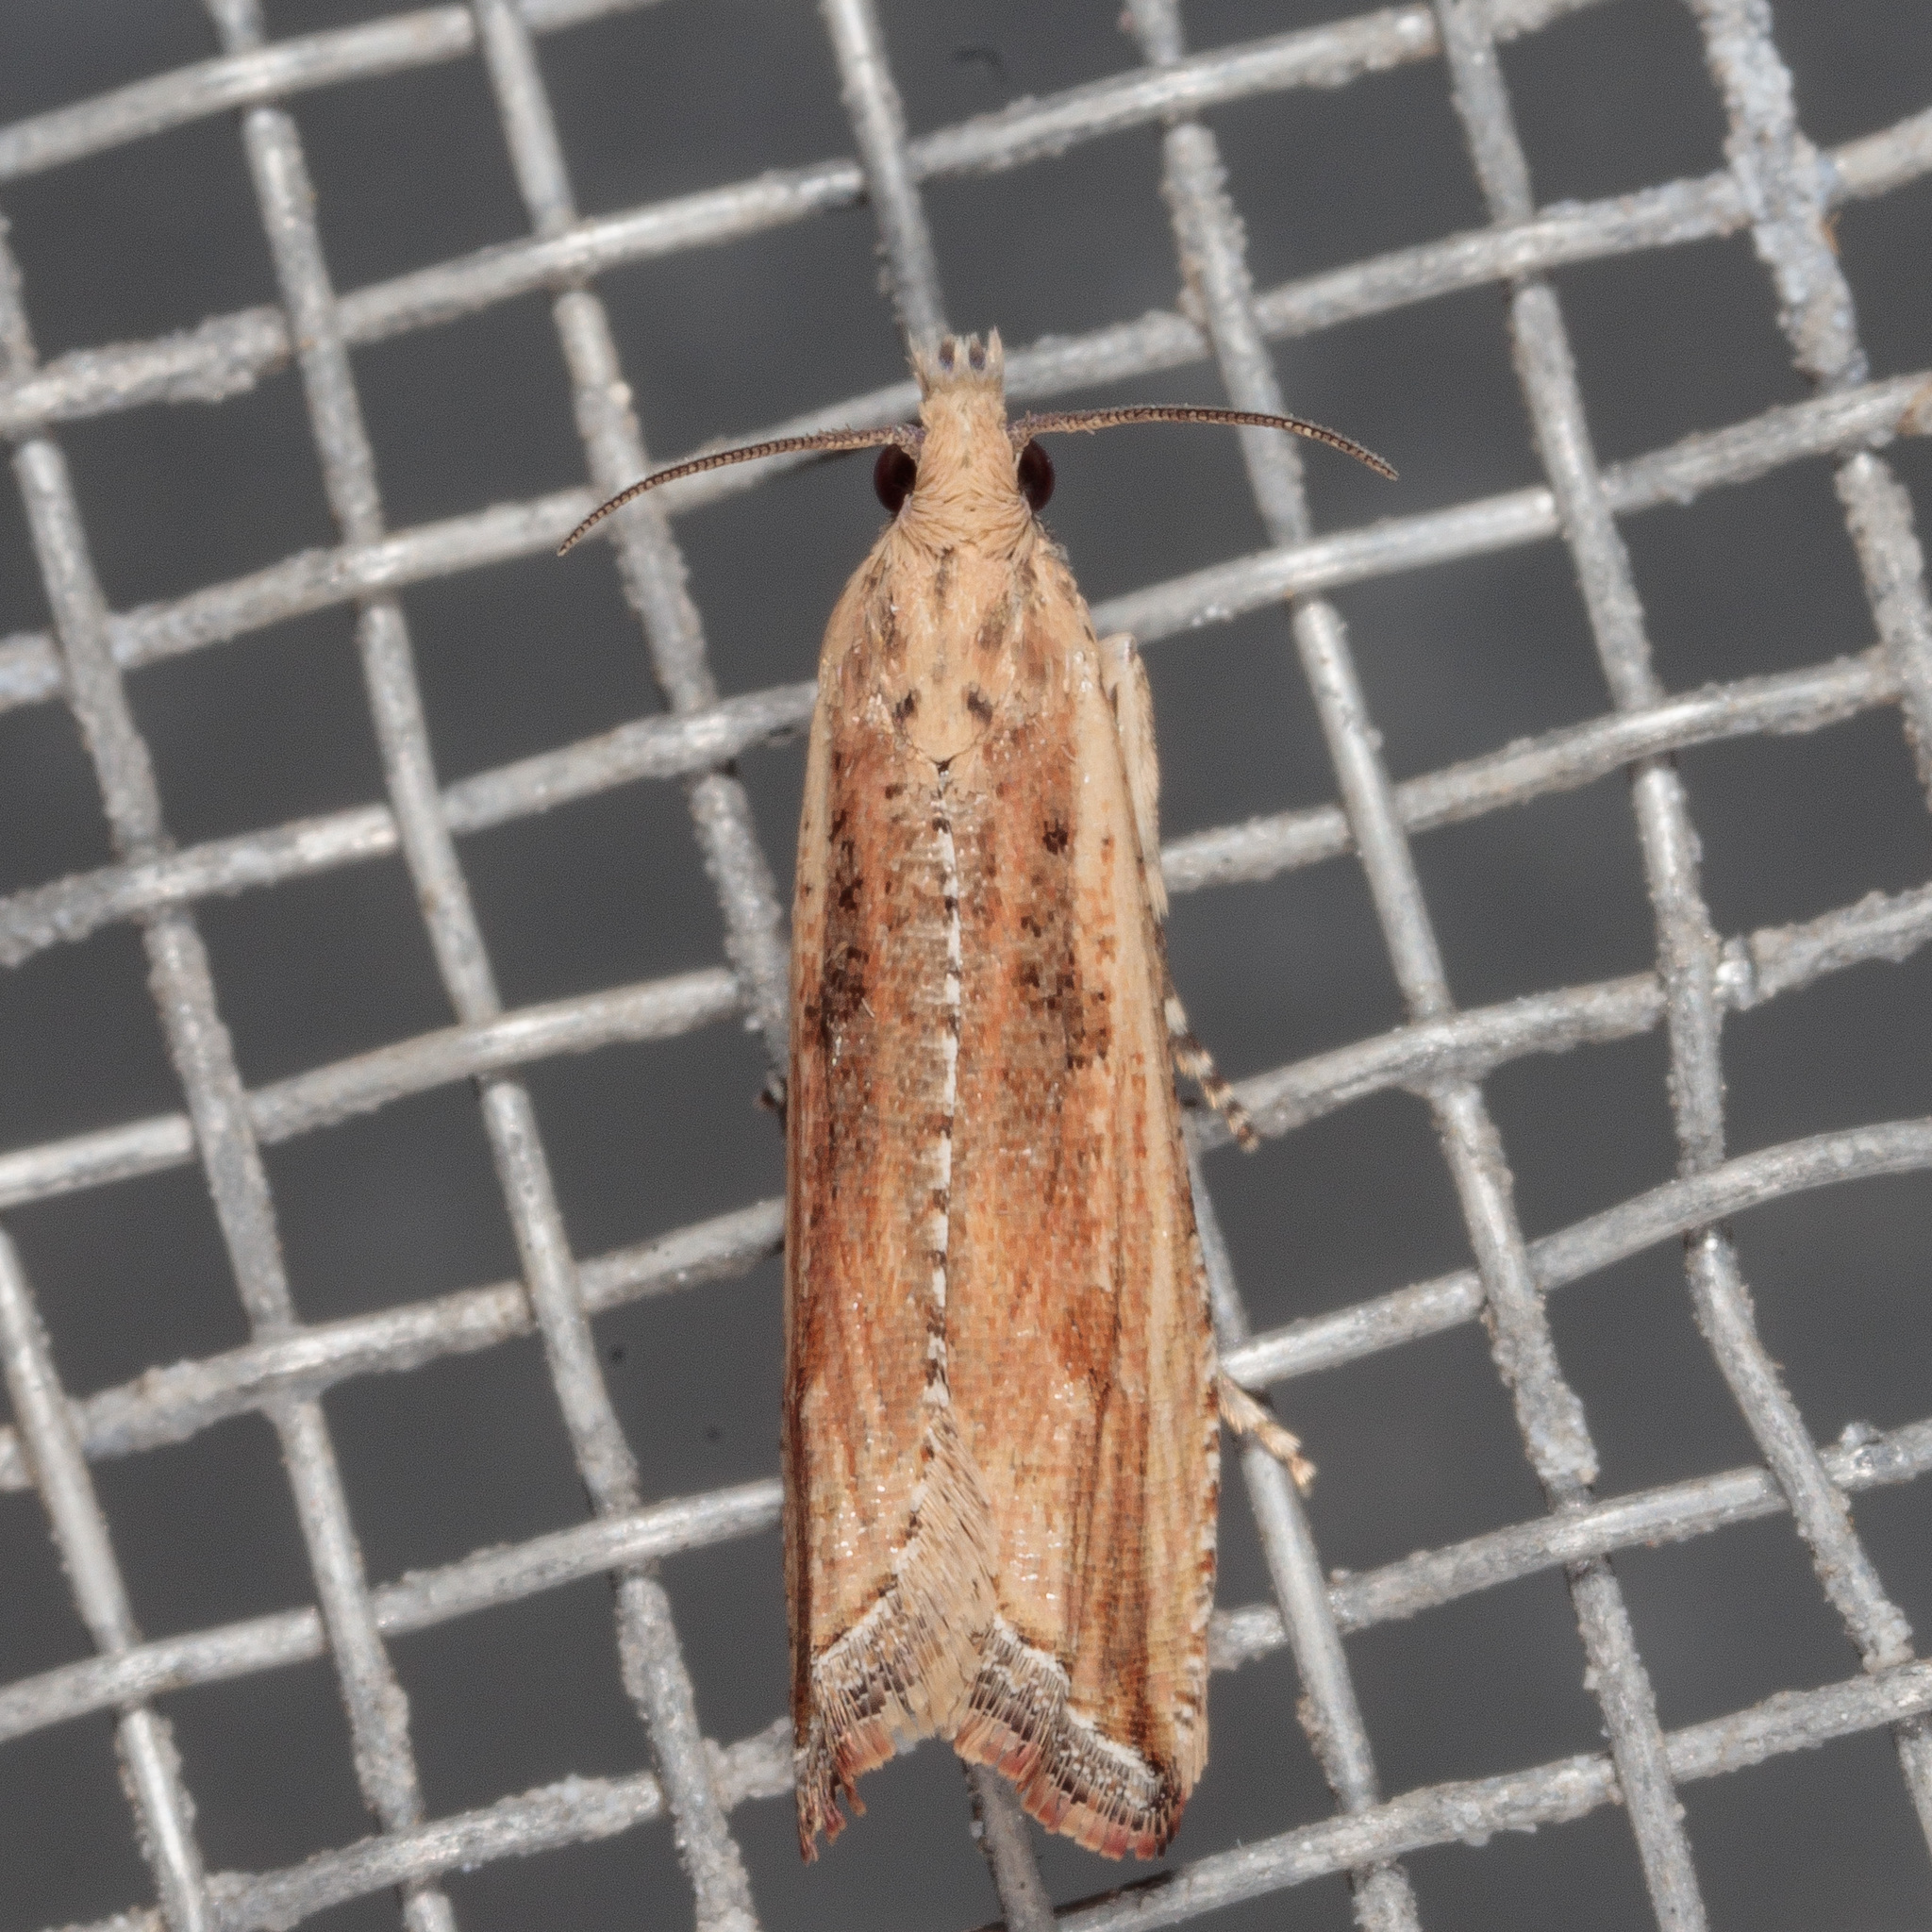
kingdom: Animalia
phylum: Arthropoda
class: Insecta
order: Lepidoptera
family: Tortricidae
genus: Bactra
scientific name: Bactra verutana
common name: Javelin moth
